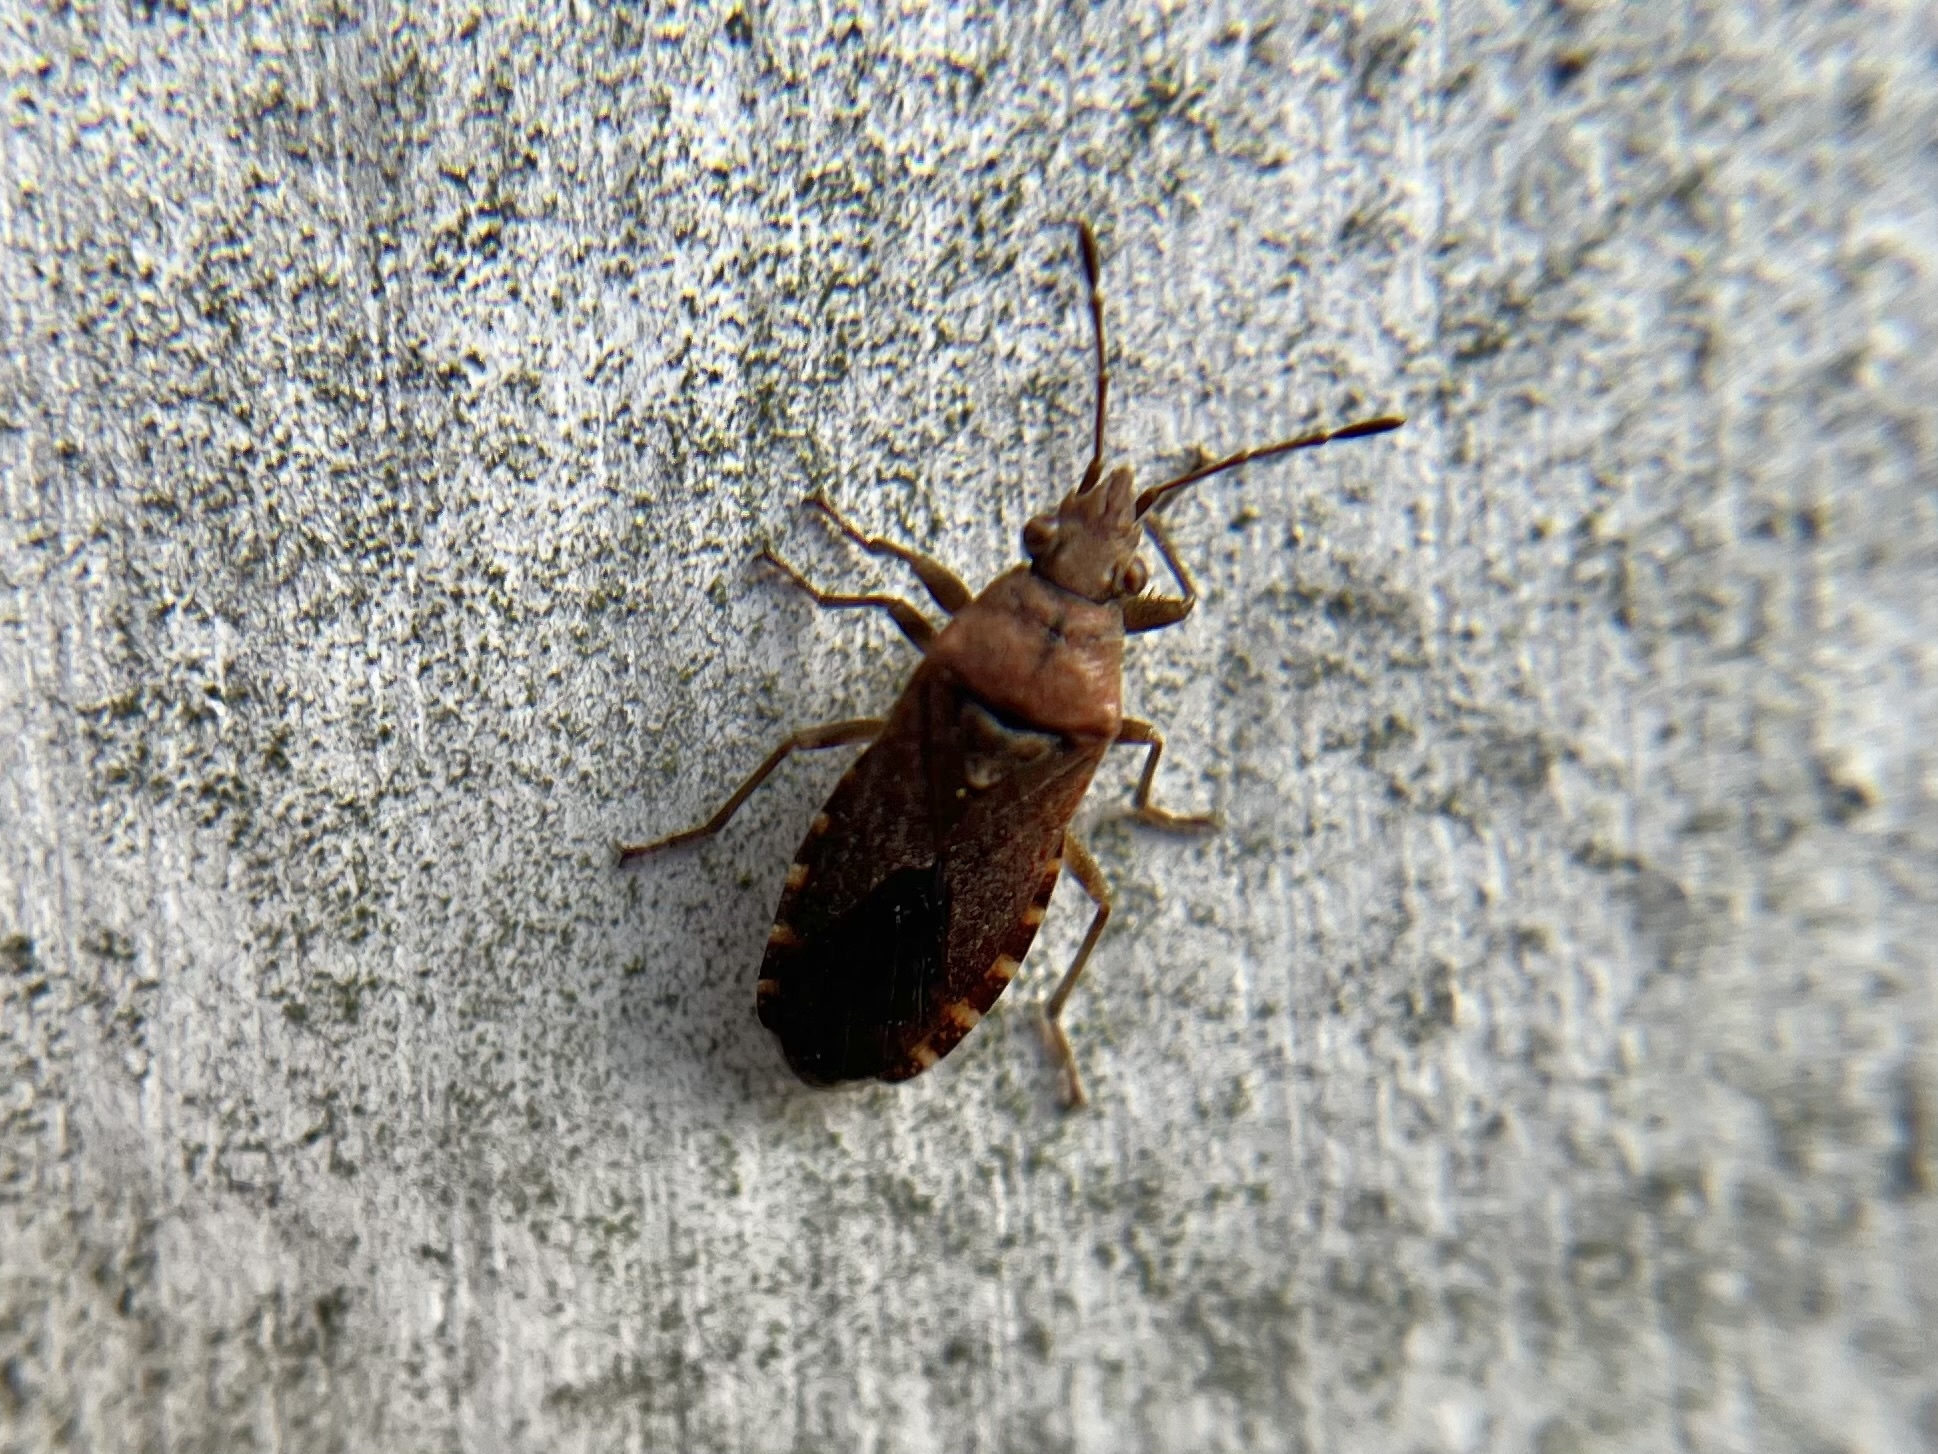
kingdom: Animalia
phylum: Arthropoda
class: Insecta
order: Hemiptera
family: Lygaeidae
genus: Orsillus
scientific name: Orsillus depressus
